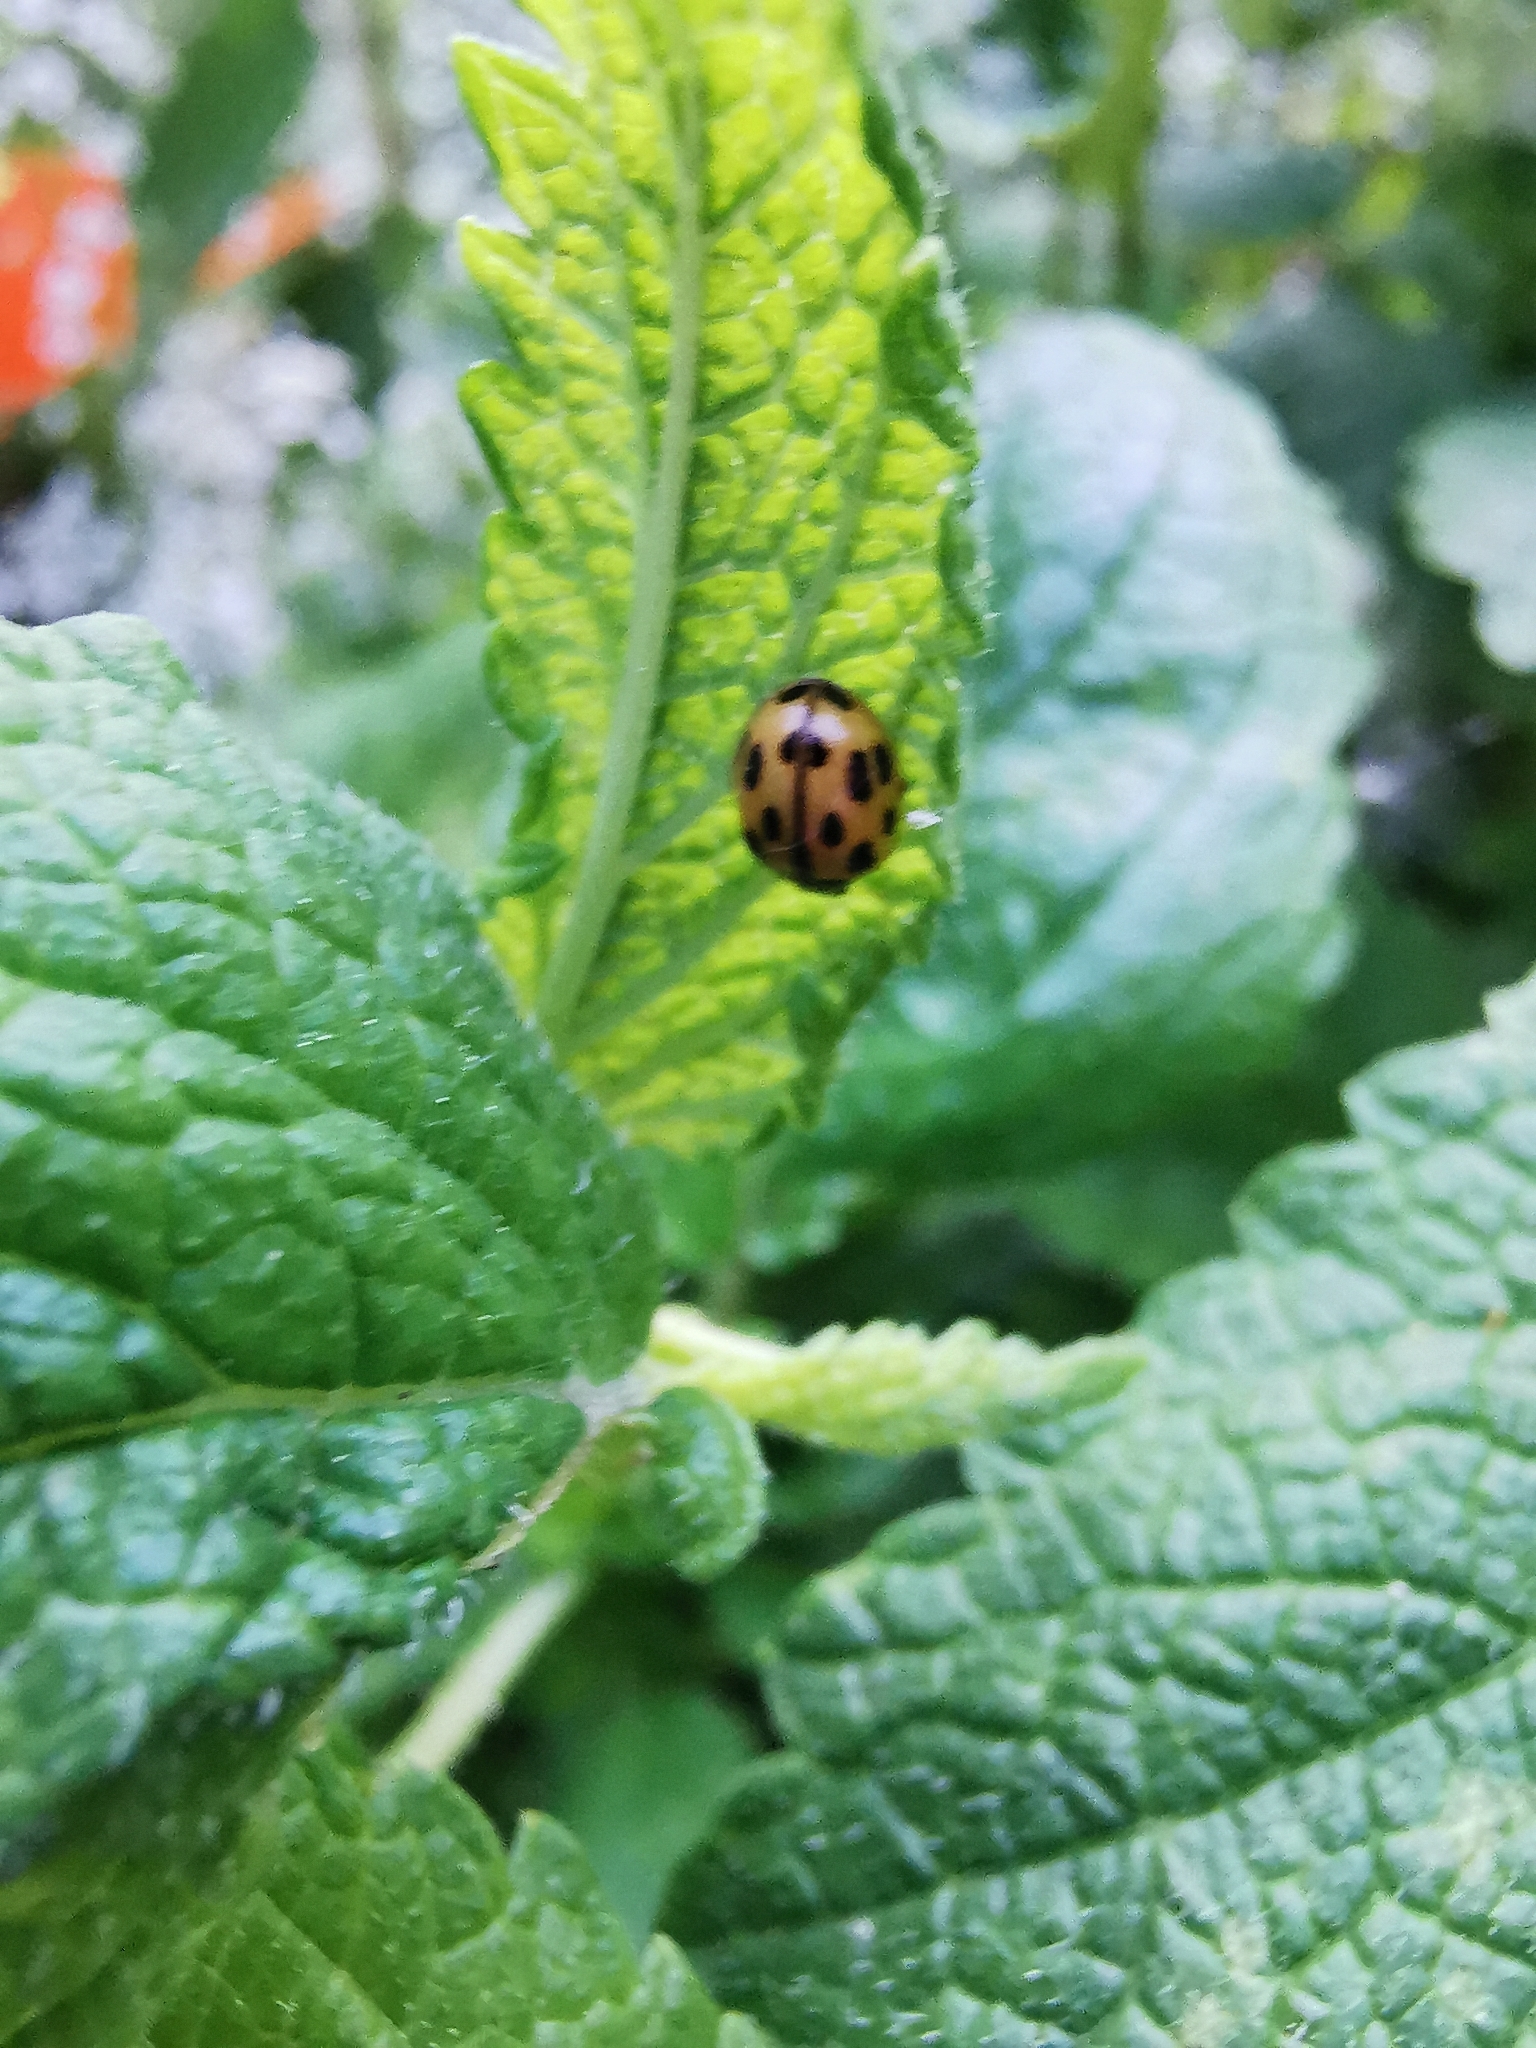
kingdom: Animalia
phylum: Arthropoda
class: Insecta
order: Coleoptera
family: Coccinellidae
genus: Propylaea
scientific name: Propylaea quatuordecimpunctata
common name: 14-spotted ladybird beetle
